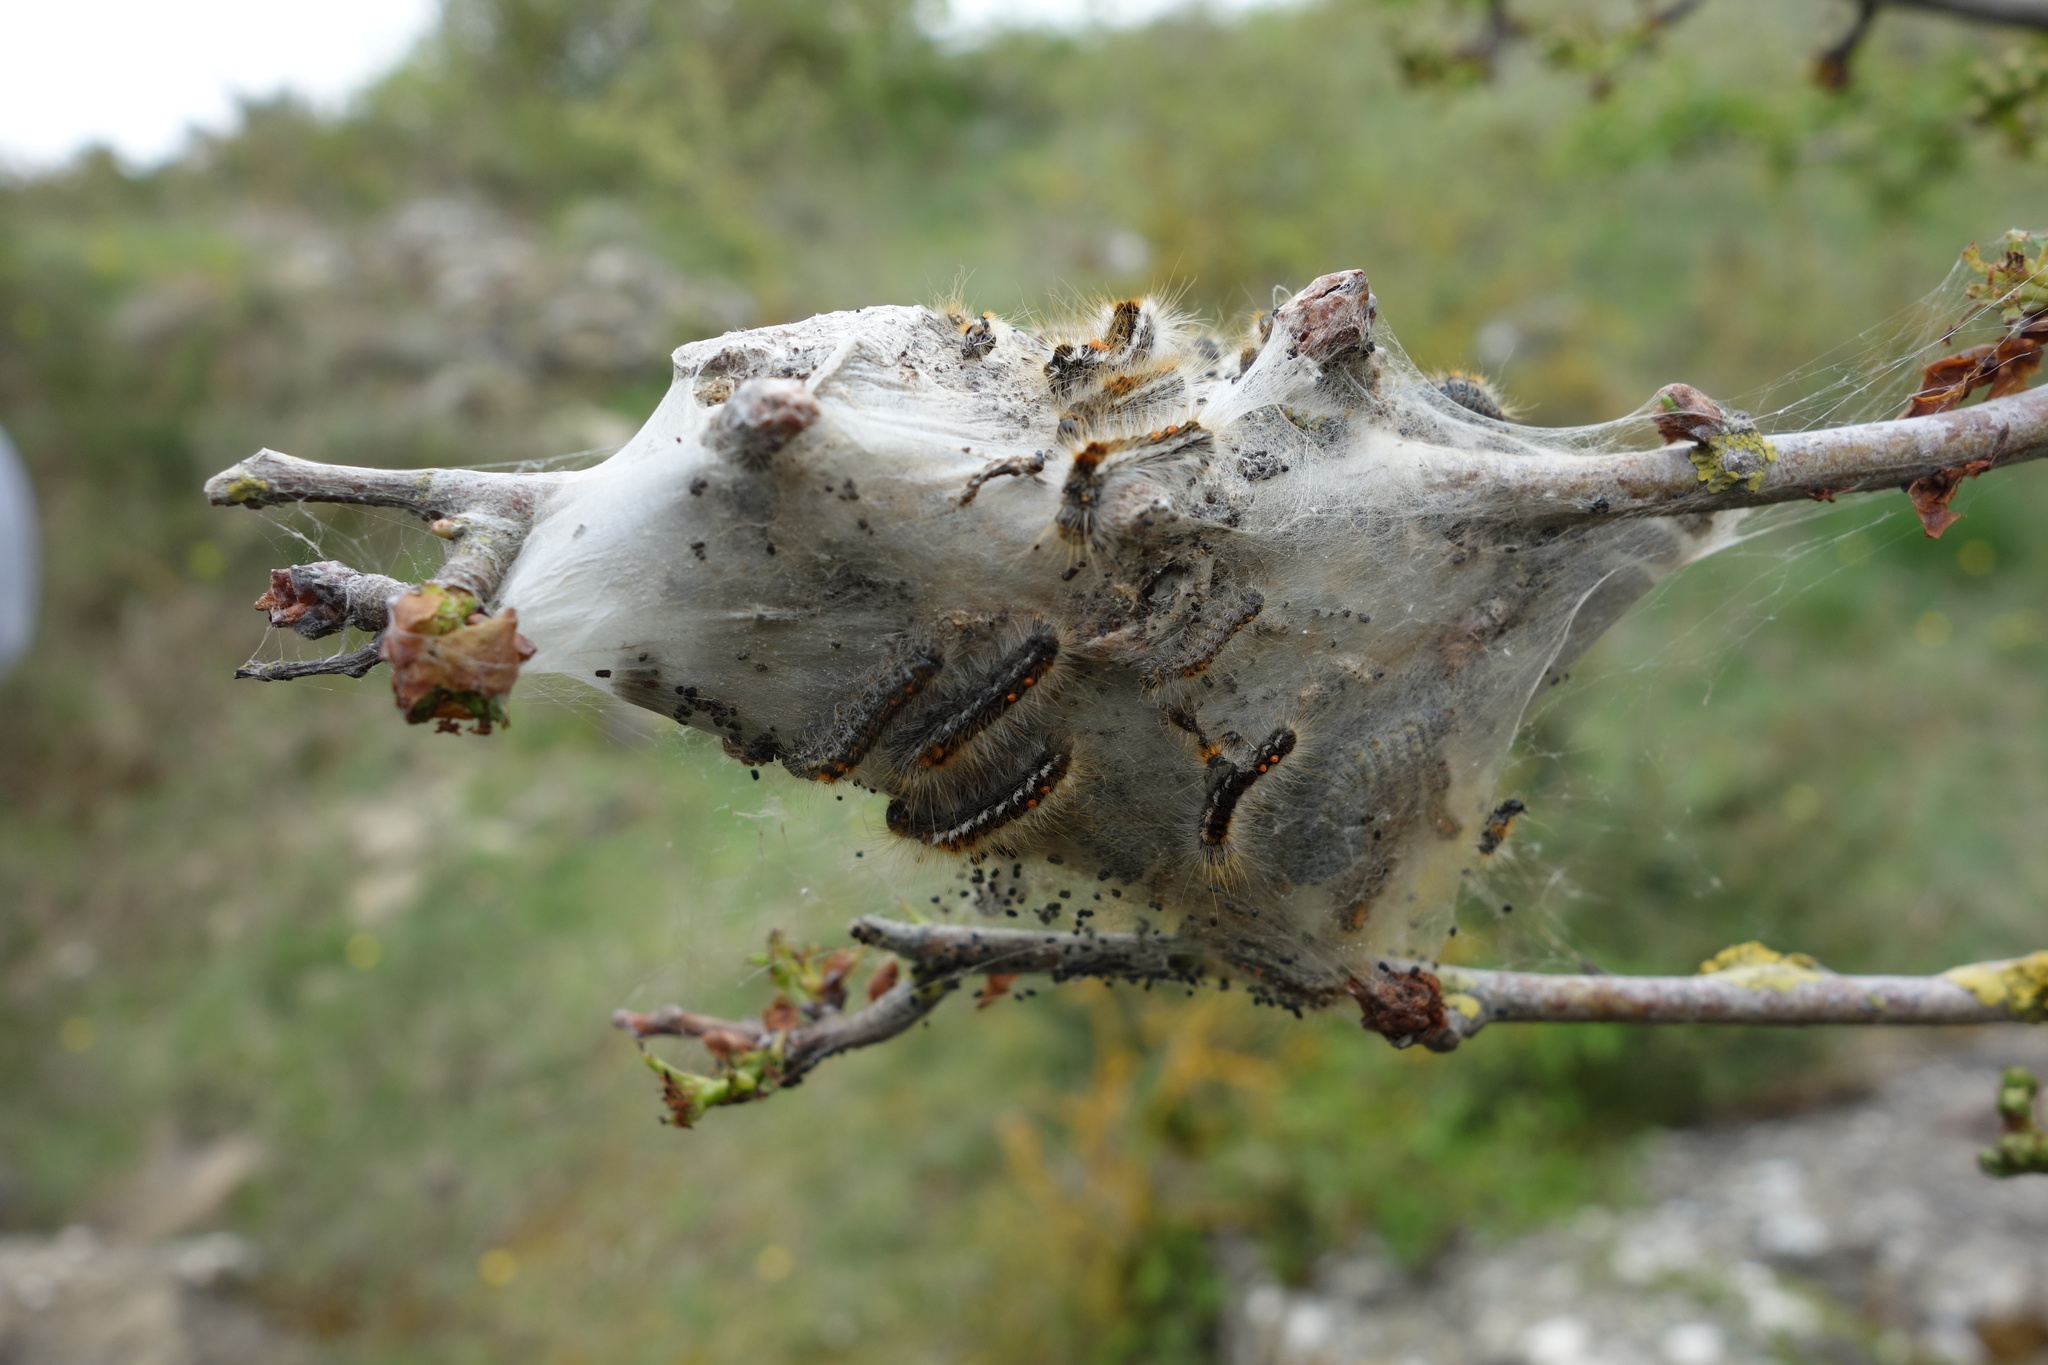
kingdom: Animalia
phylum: Arthropoda
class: Insecta
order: Lepidoptera
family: Erebidae
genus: Euproctis
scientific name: Euproctis chrysorrhoea
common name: Brown-tail
